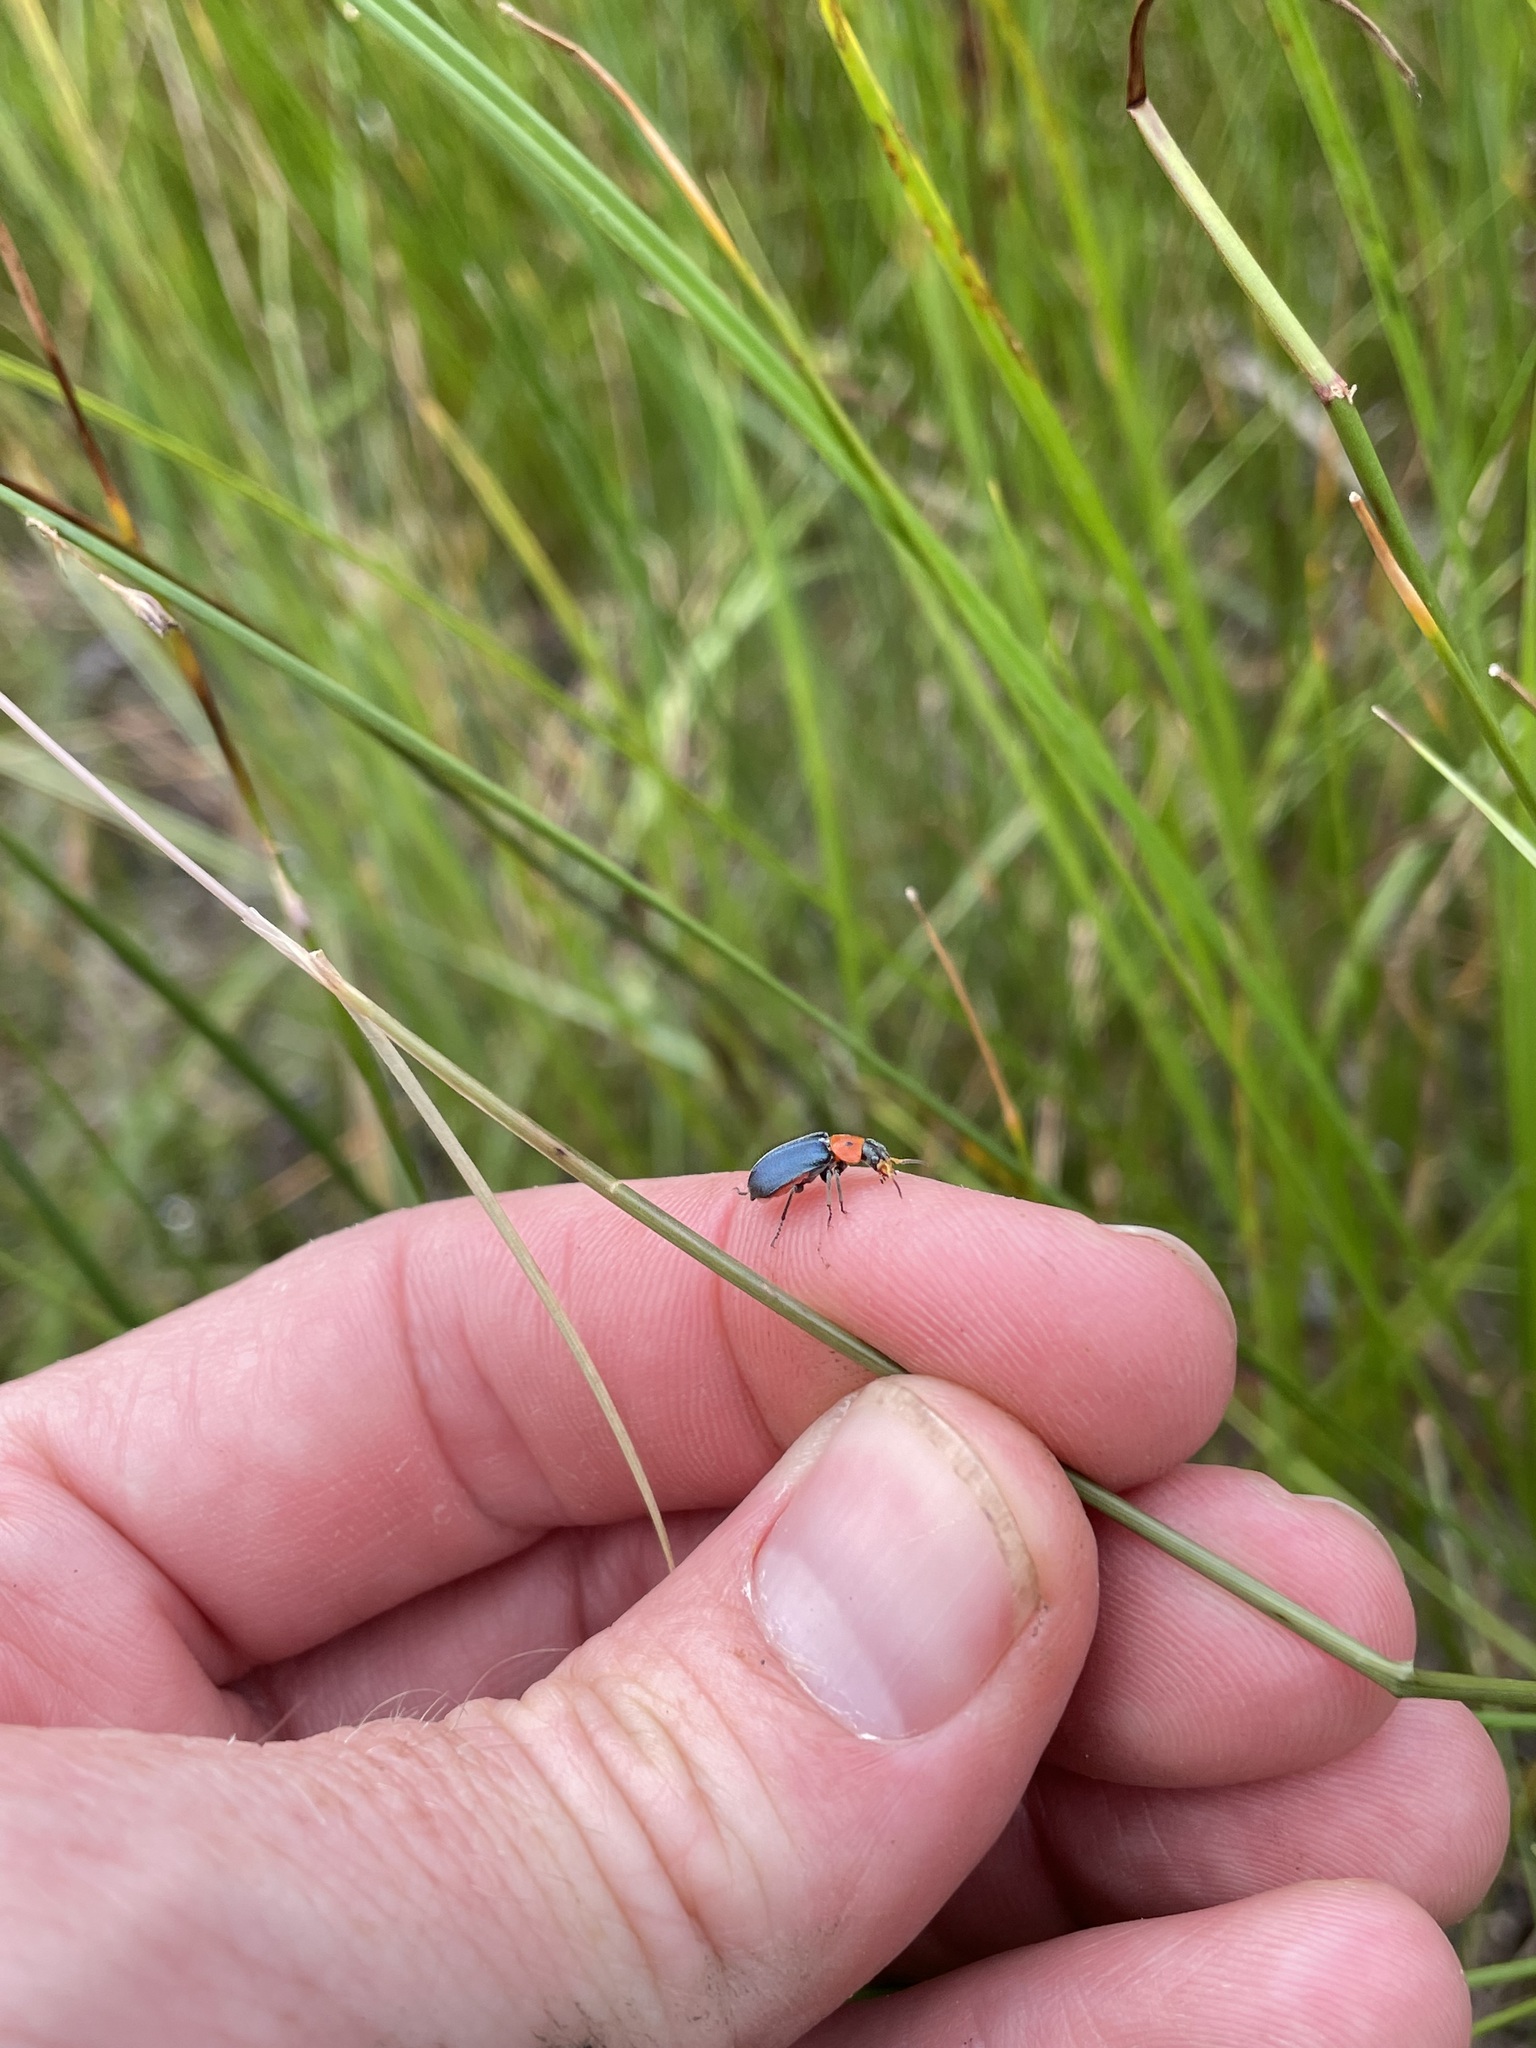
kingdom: Animalia
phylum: Arthropoda
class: Insecta
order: Coleoptera
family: Melyridae
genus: Collops
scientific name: Collops bipunctatus
